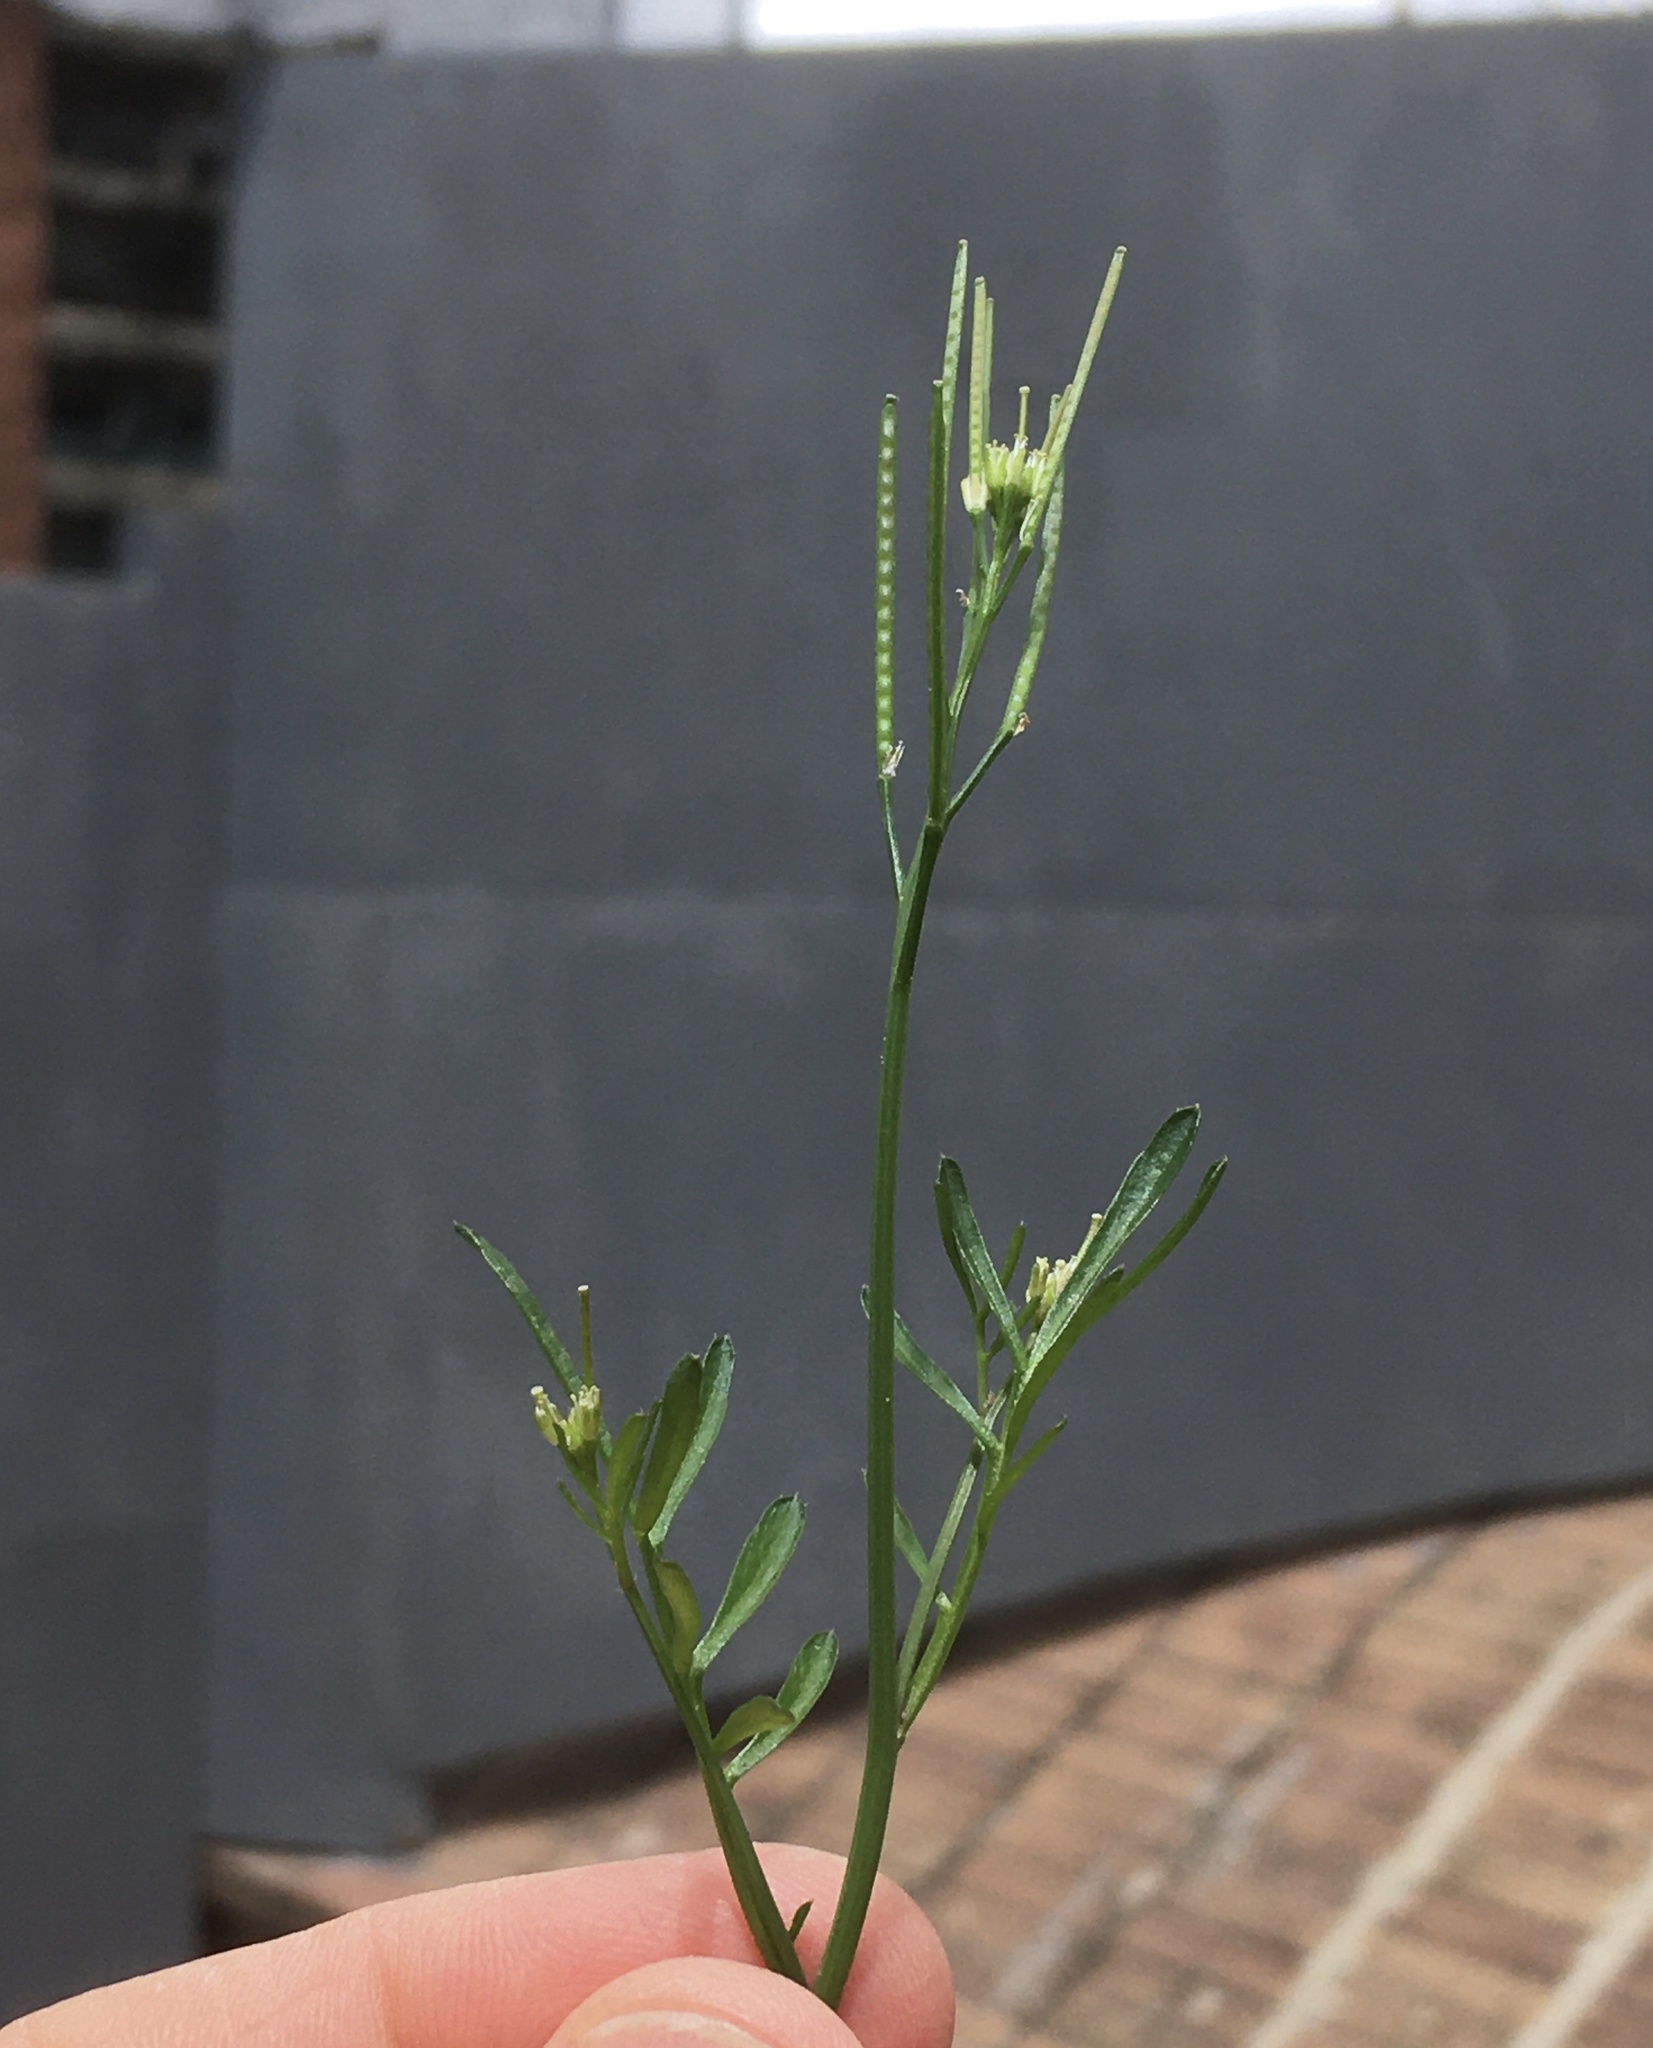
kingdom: Plantae
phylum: Tracheophyta
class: Magnoliopsida
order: Brassicales
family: Brassicaceae
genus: Cardamine
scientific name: Cardamine hirsuta
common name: Hairy bittercress
